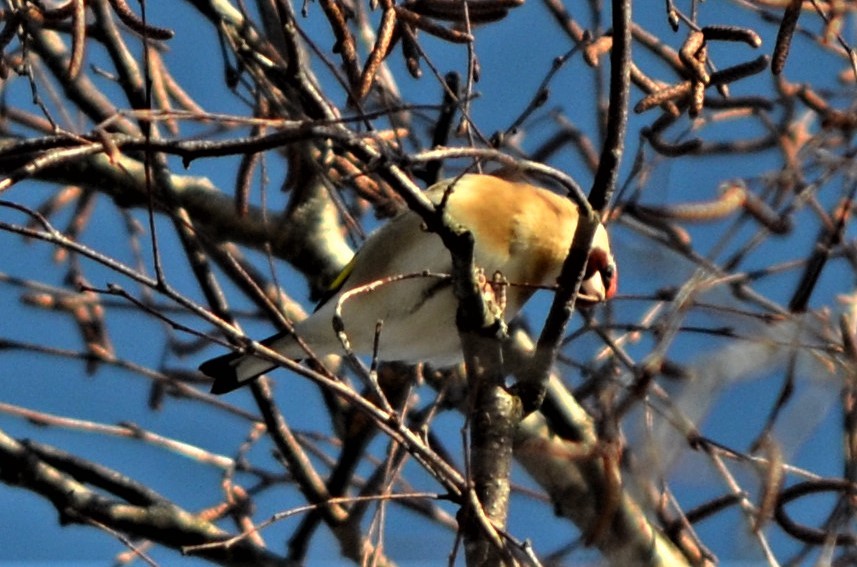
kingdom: Animalia
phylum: Chordata
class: Aves
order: Passeriformes
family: Fringillidae
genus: Carduelis
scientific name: Carduelis carduelis
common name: European goldfinch
